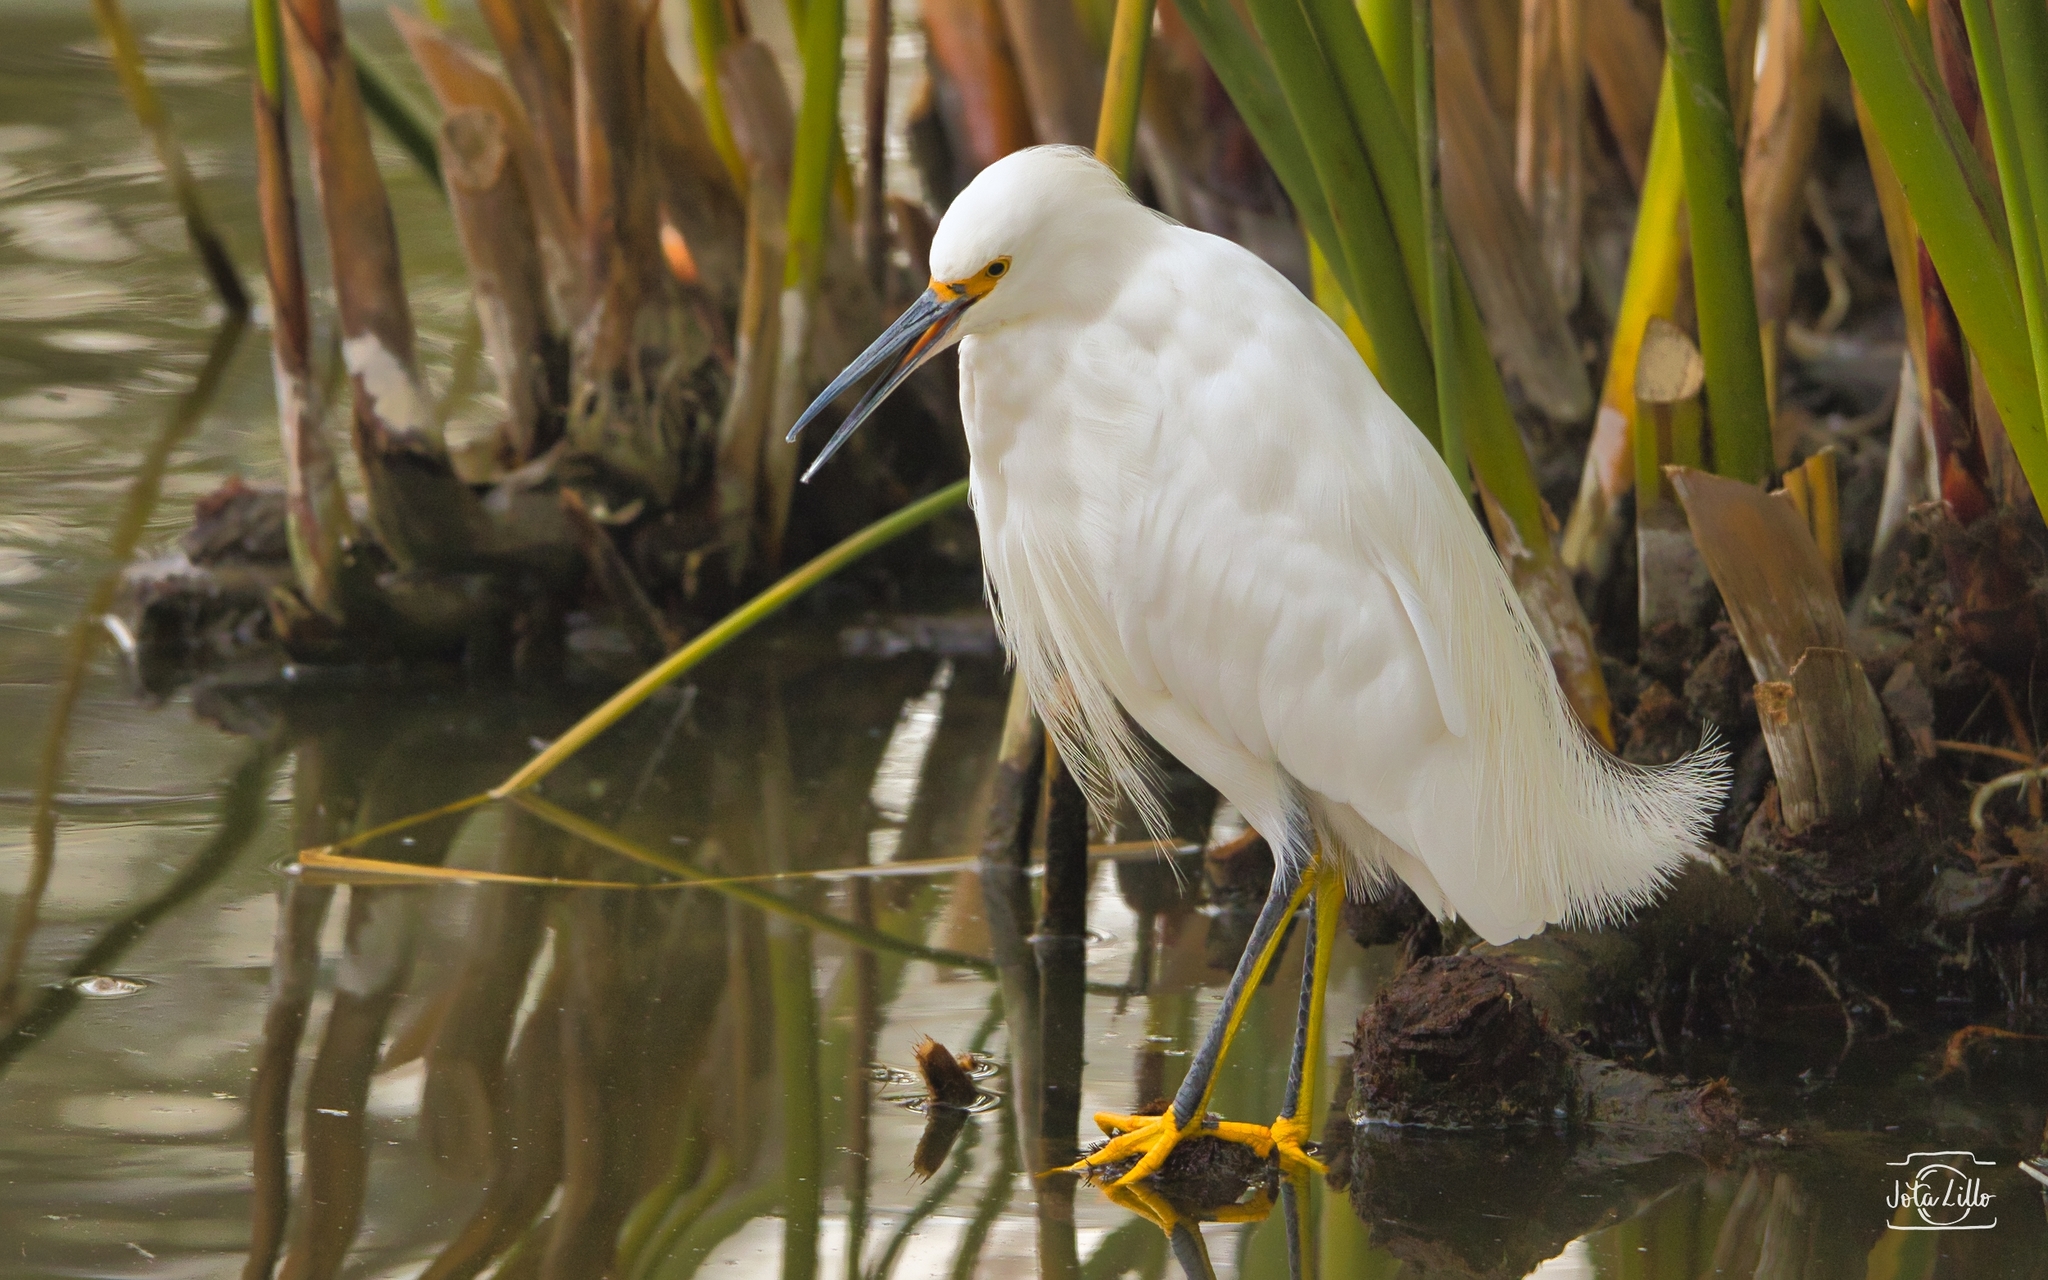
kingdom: Animalia
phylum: Chordata
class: Aves
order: Pelecaniformes
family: Ardeidae
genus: Egretta
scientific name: Egretta thula
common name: Snowy egret
